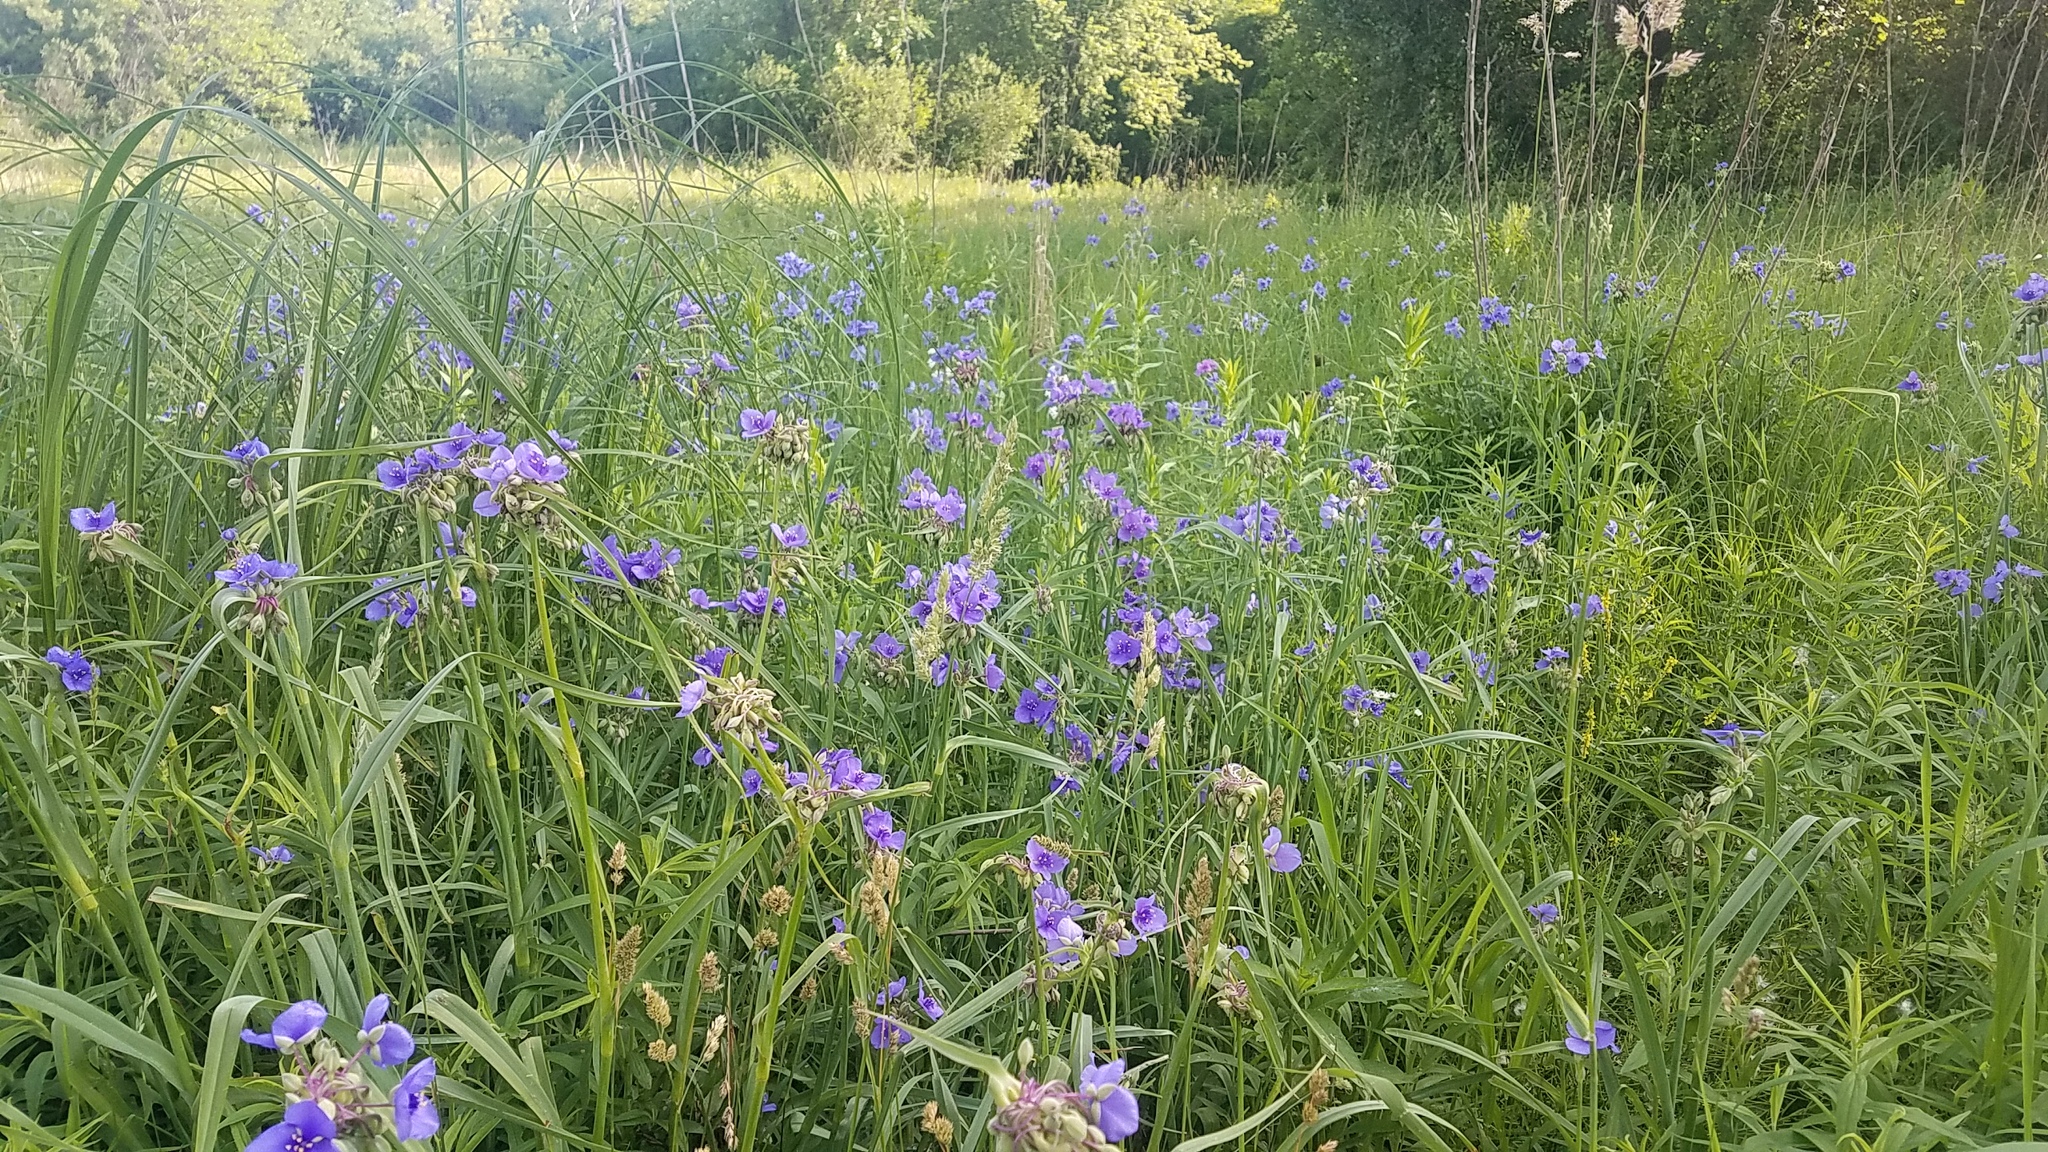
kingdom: Plantae
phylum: Tracheophyta
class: Liliopsida
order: Commelinales
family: Commelinaceae
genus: Tradescantia
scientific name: Tradescantia ohiensis
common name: Ohio spiderwort
